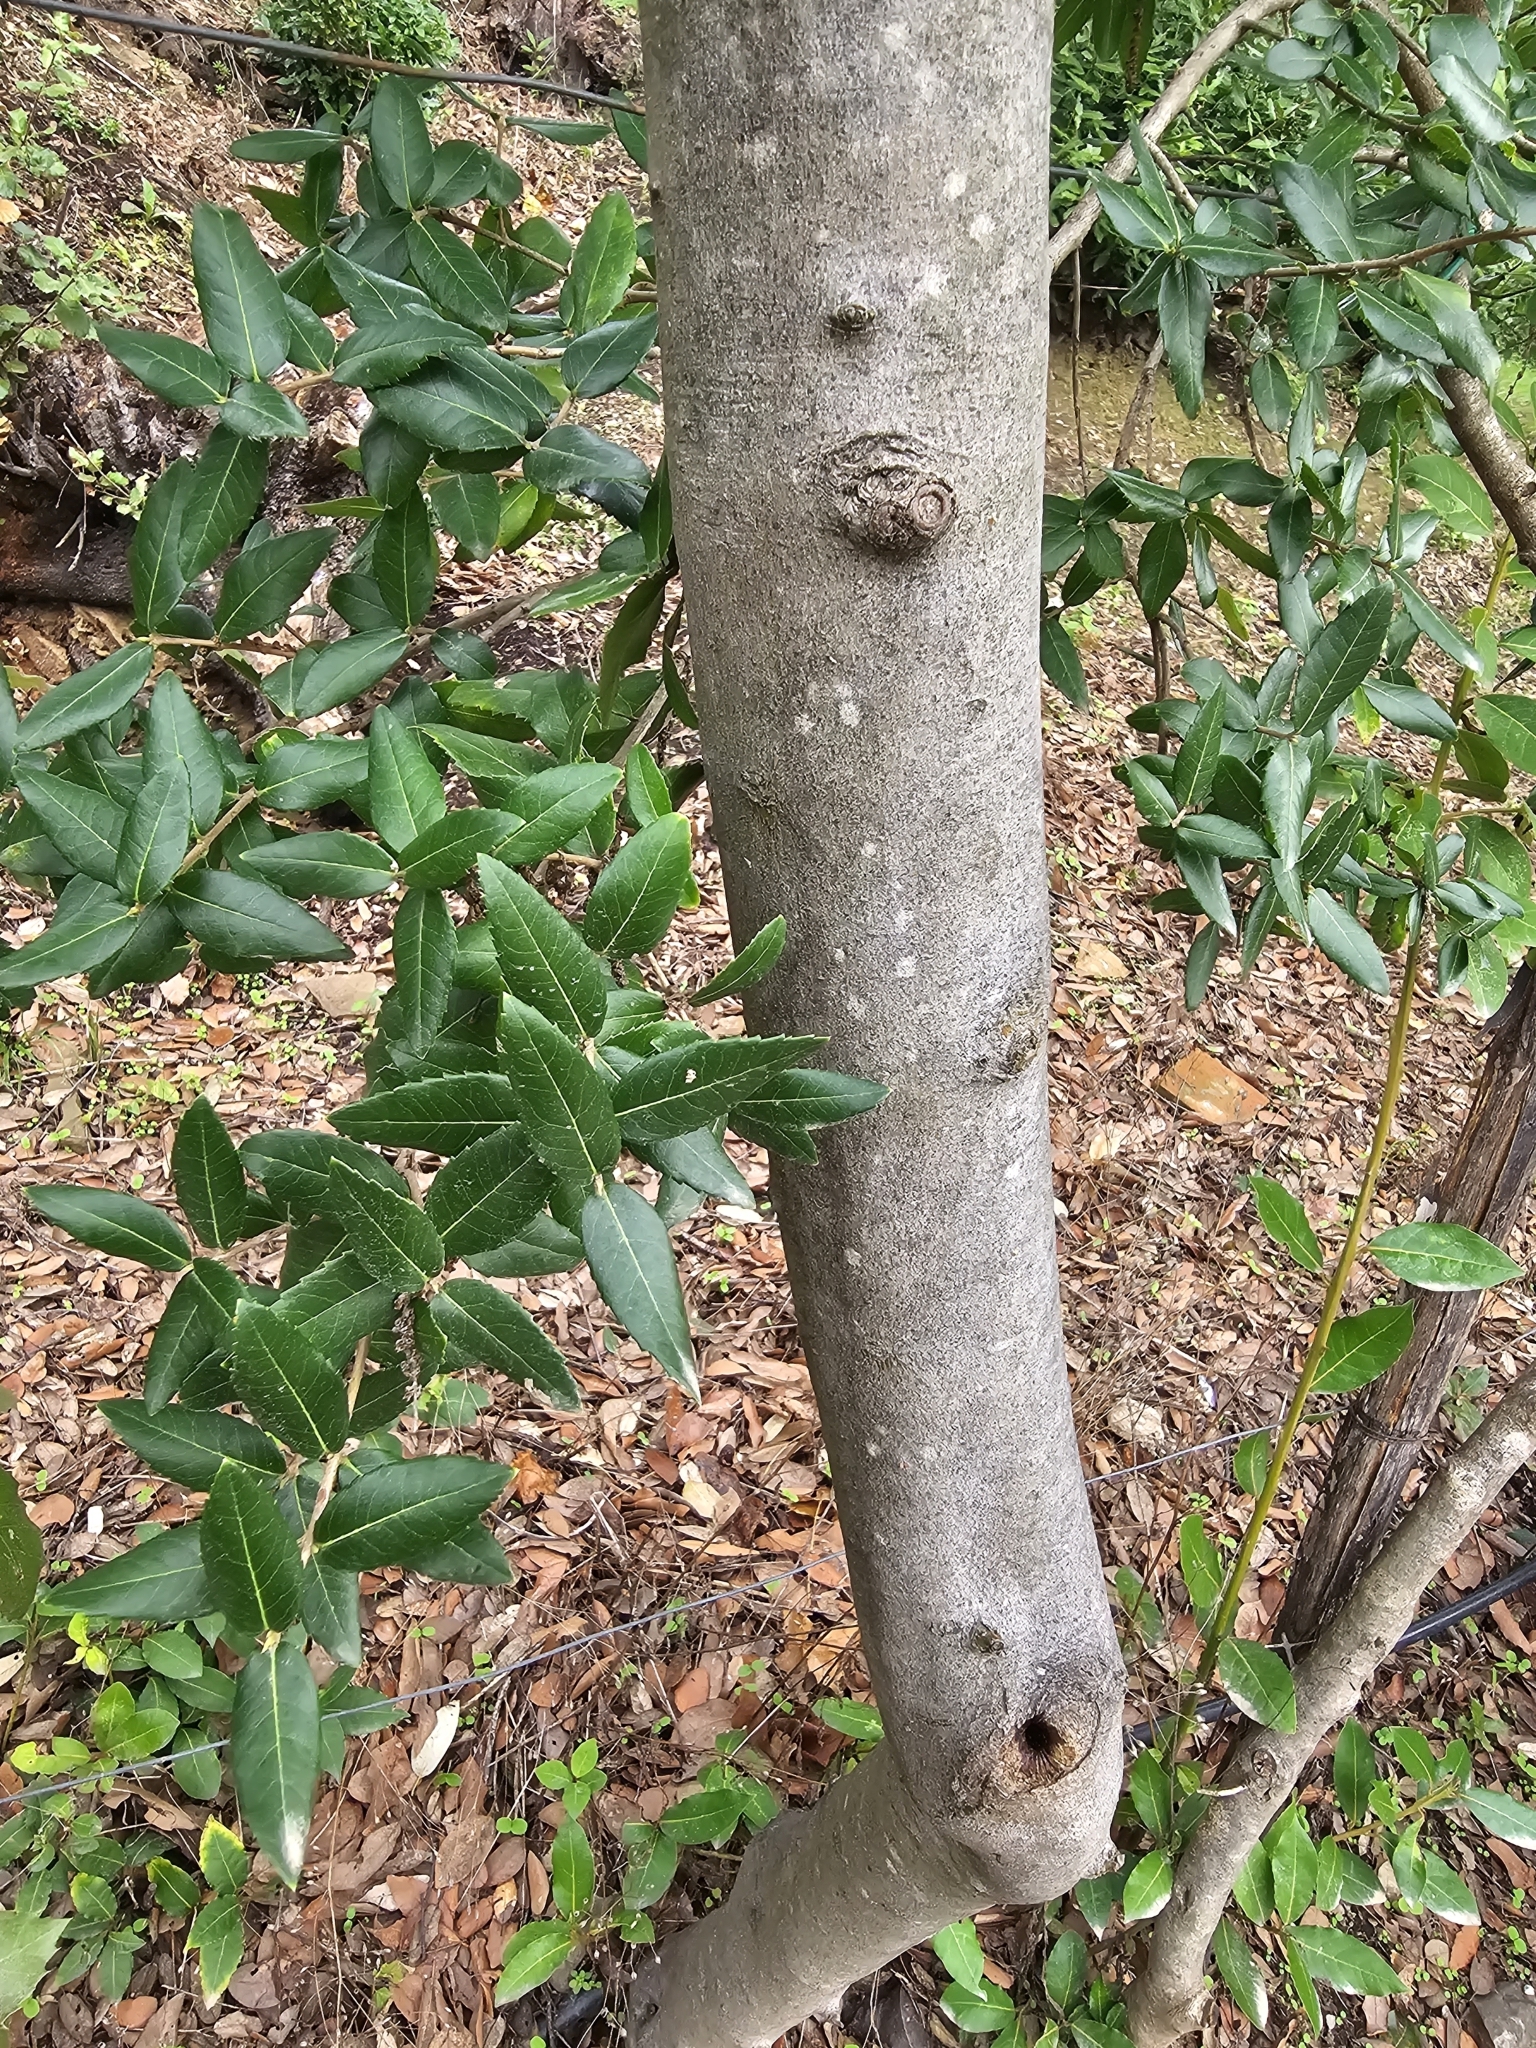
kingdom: Plantae
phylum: Tracheophyta
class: Magnoliopsida
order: Lamiales
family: Oleaceae
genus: Phillyrea
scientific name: Phillyrea latifolia
